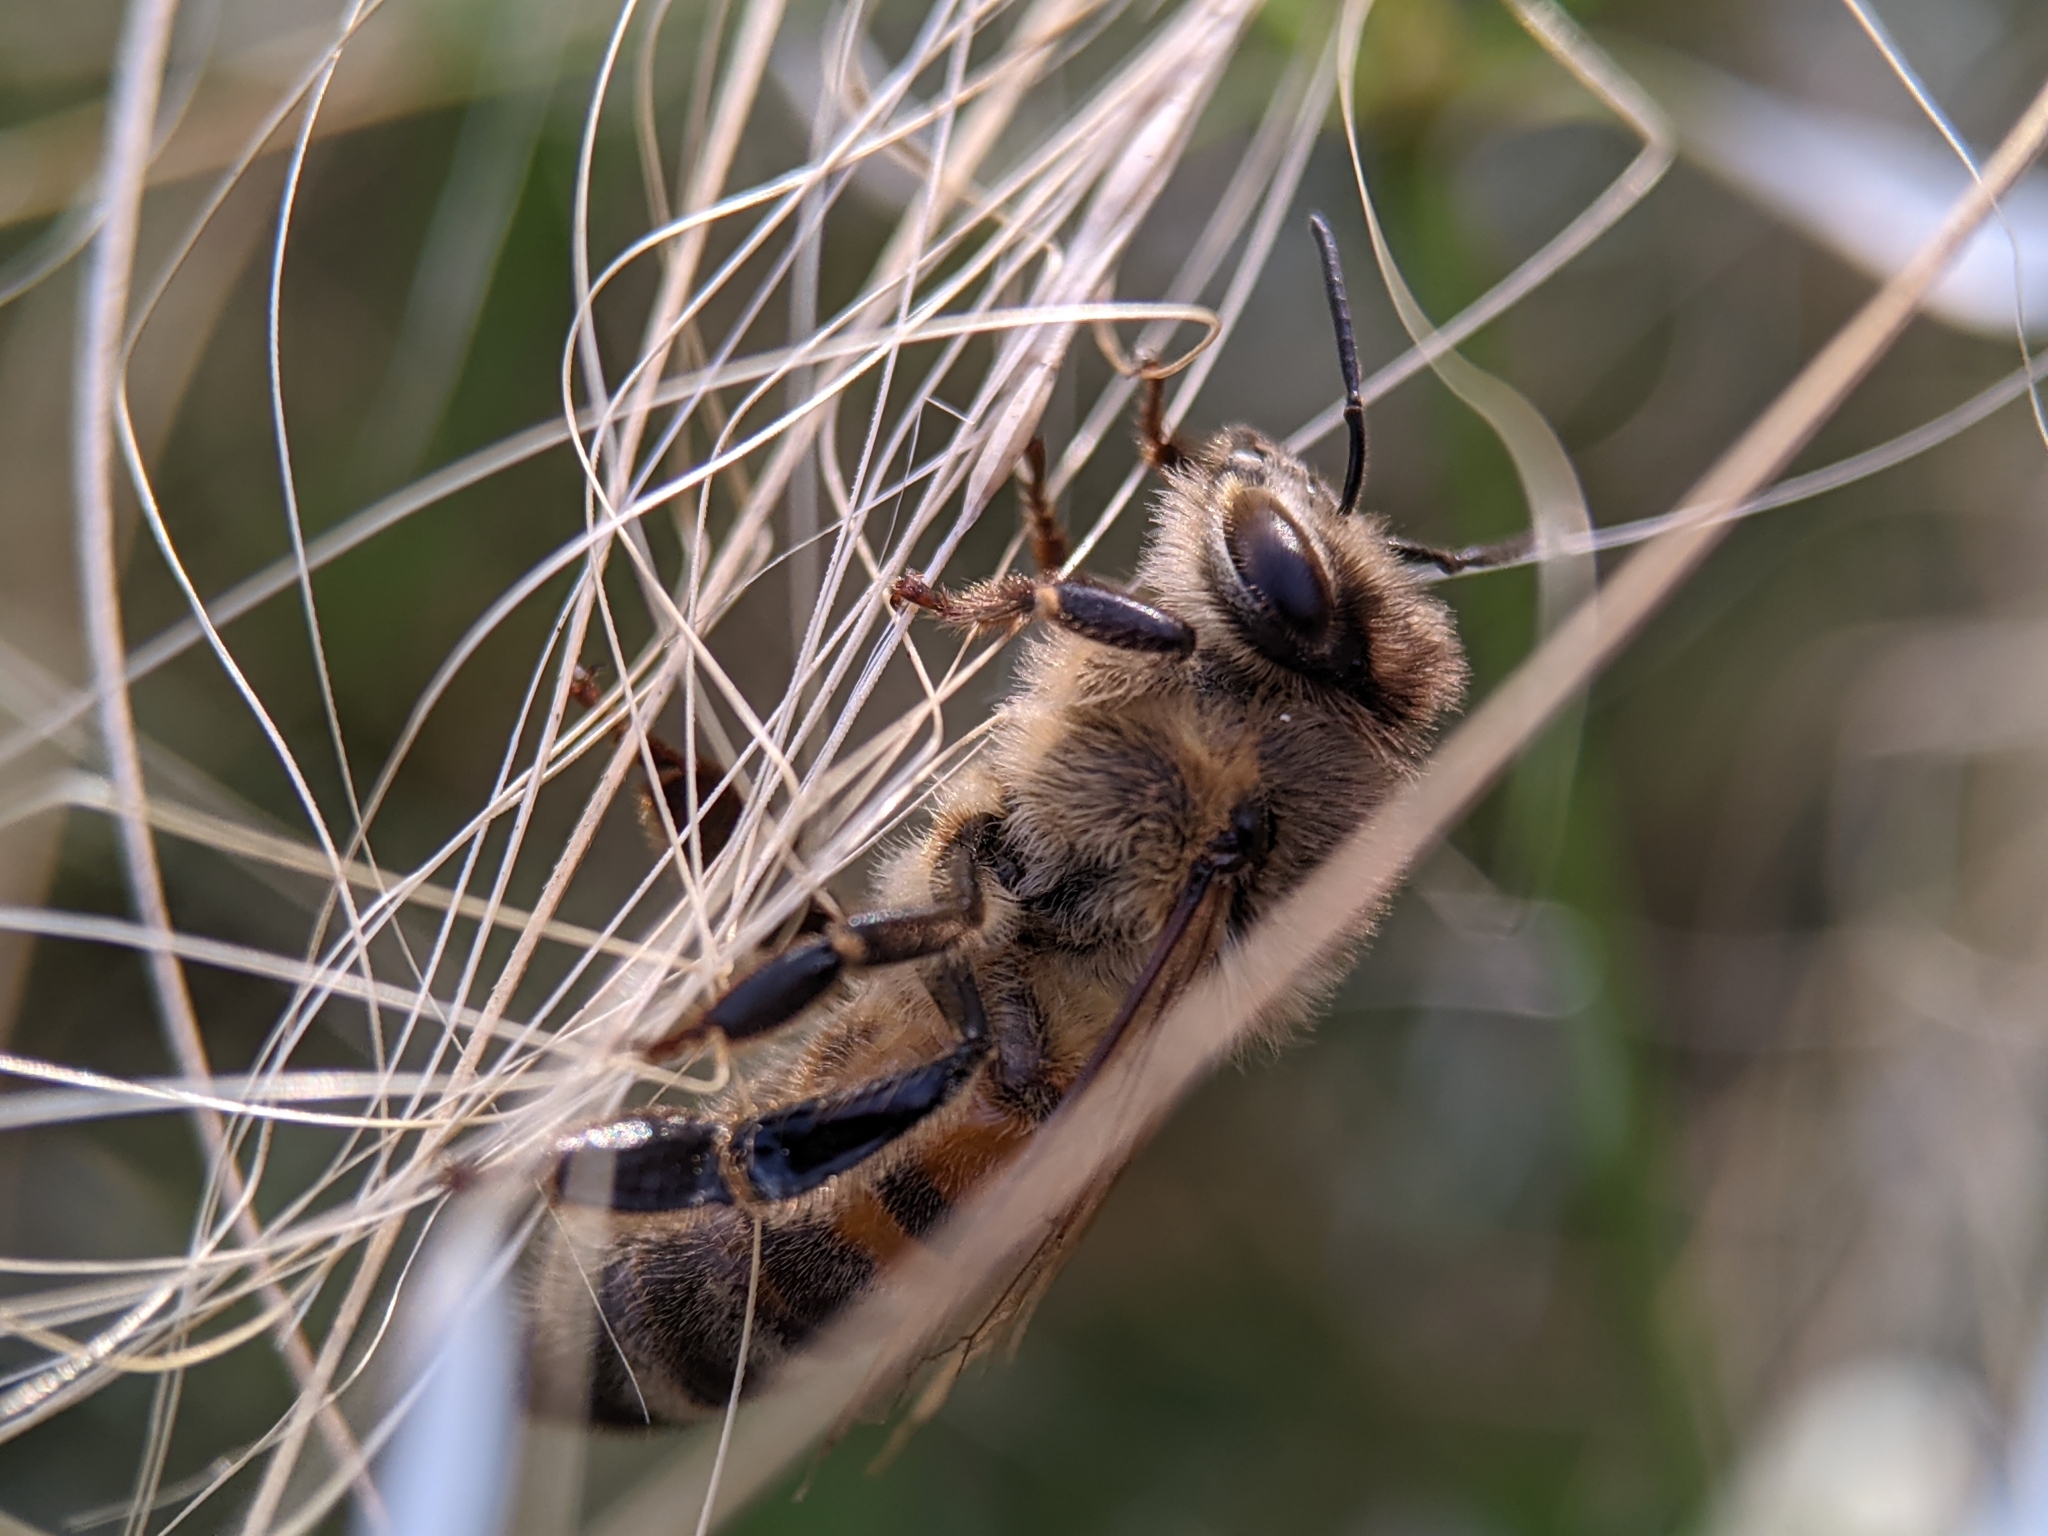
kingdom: Animalia
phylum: Arthropoda
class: Insecta
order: Hymenoptera
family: Apidae
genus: Apis
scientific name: Apis mellifera
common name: Honey bee
